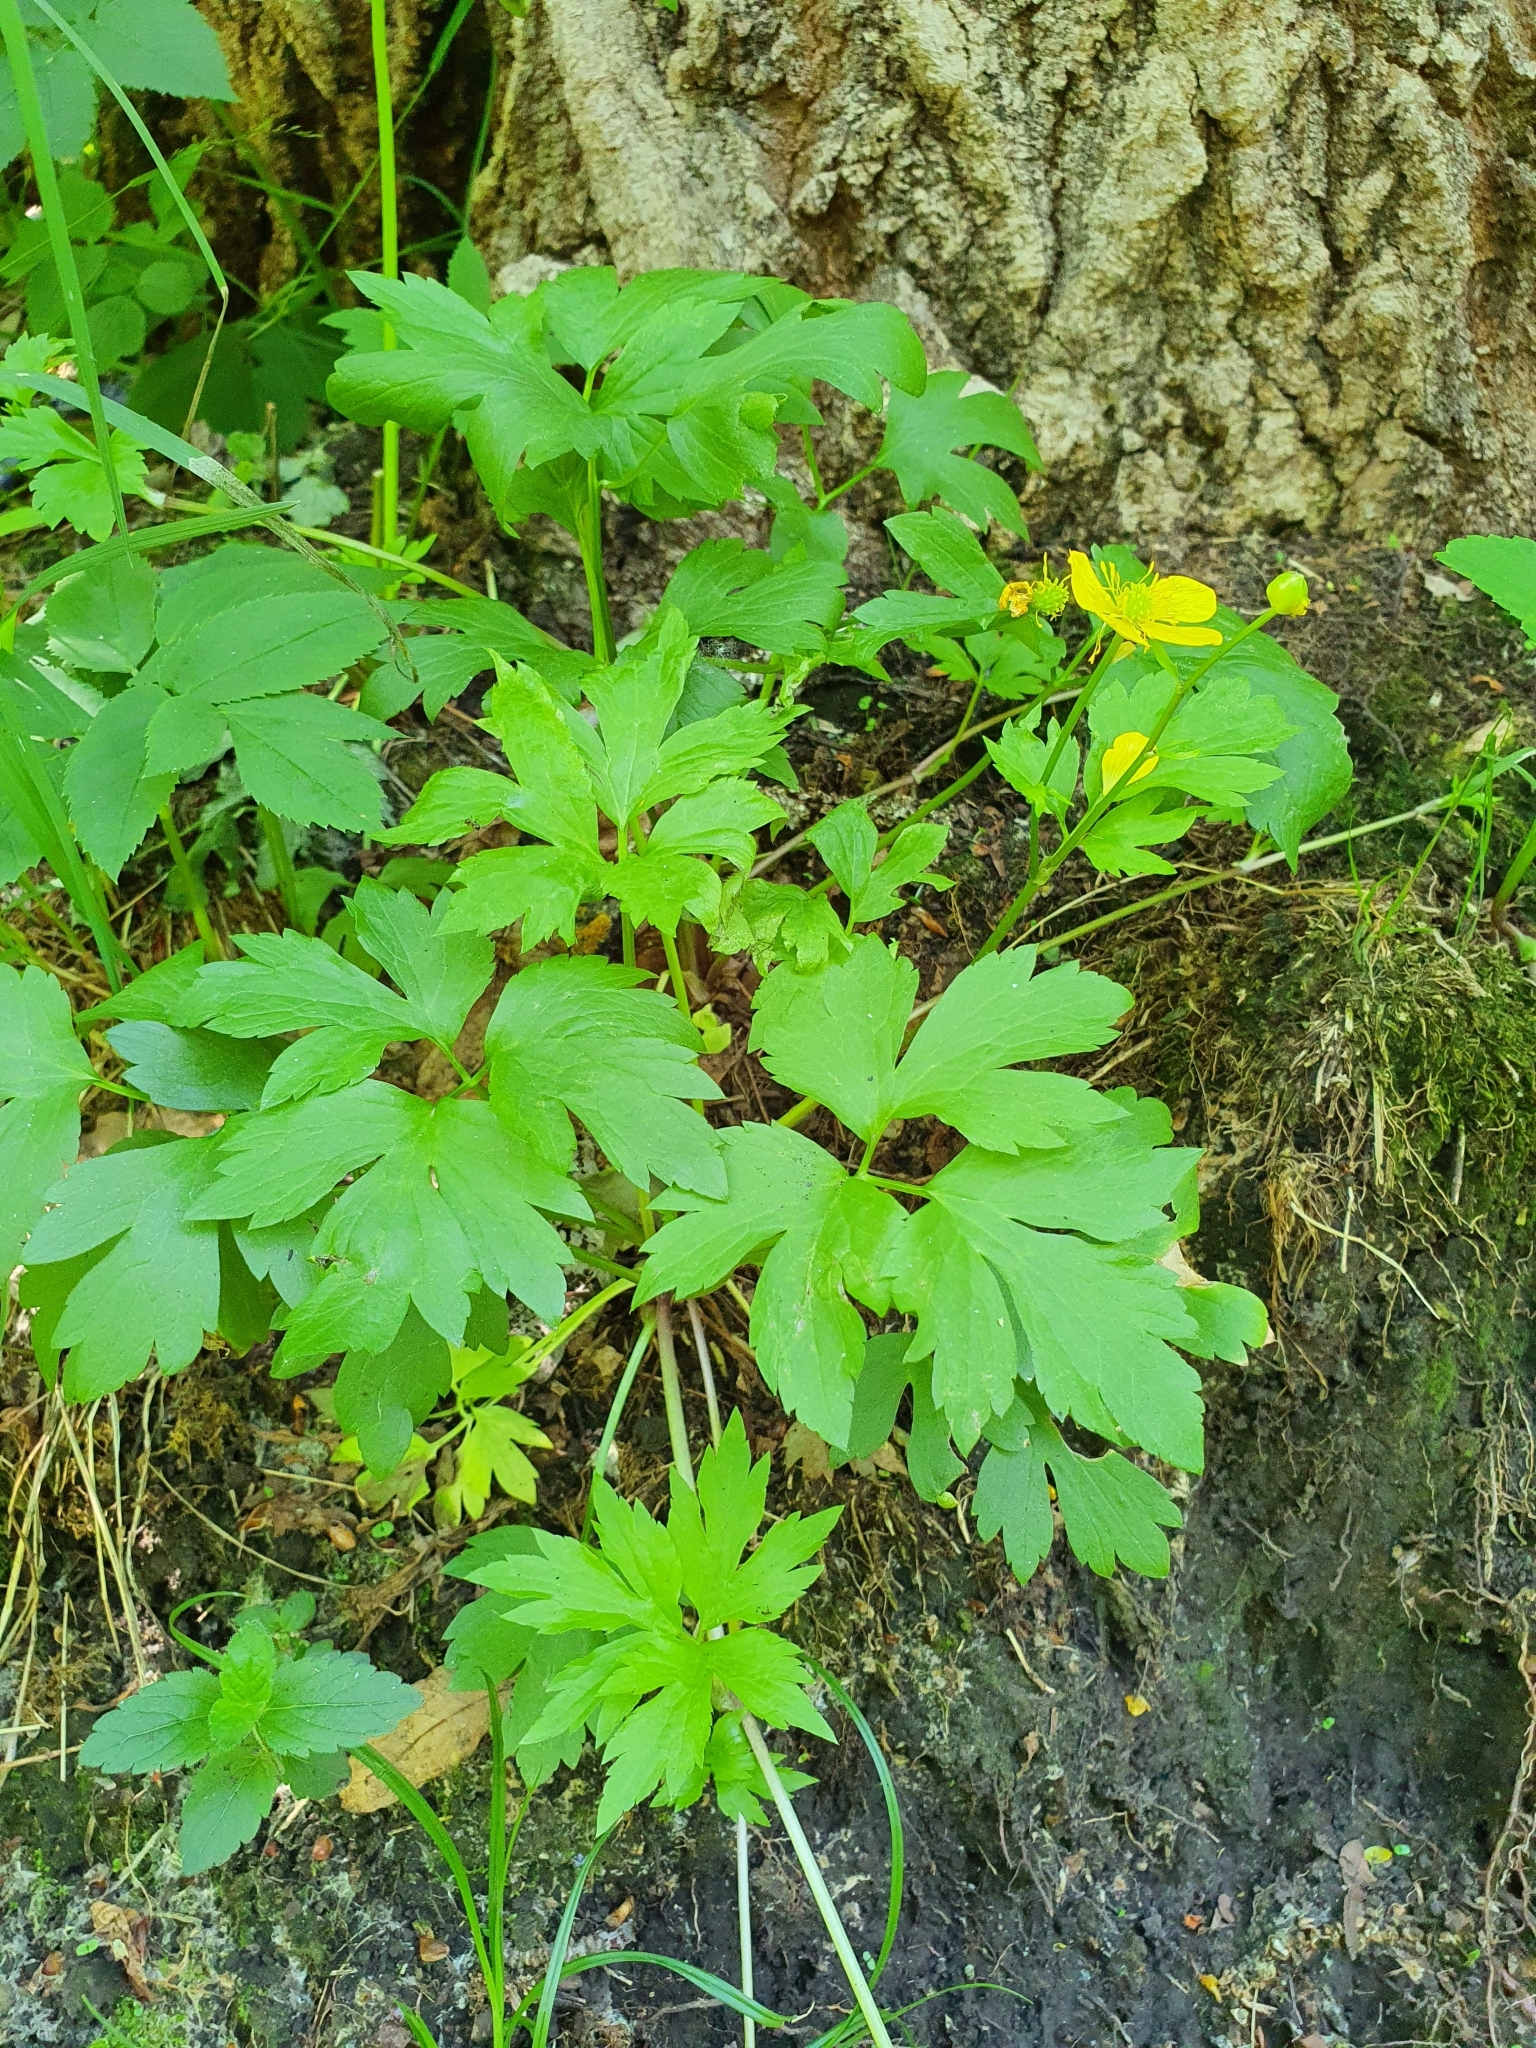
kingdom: Plantae
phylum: Tracheophyta
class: Magnoliopsida
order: Ranunculales
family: Ranunculaceae
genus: Ranunculus
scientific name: Ranunculus repens
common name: Creeping buttercup
